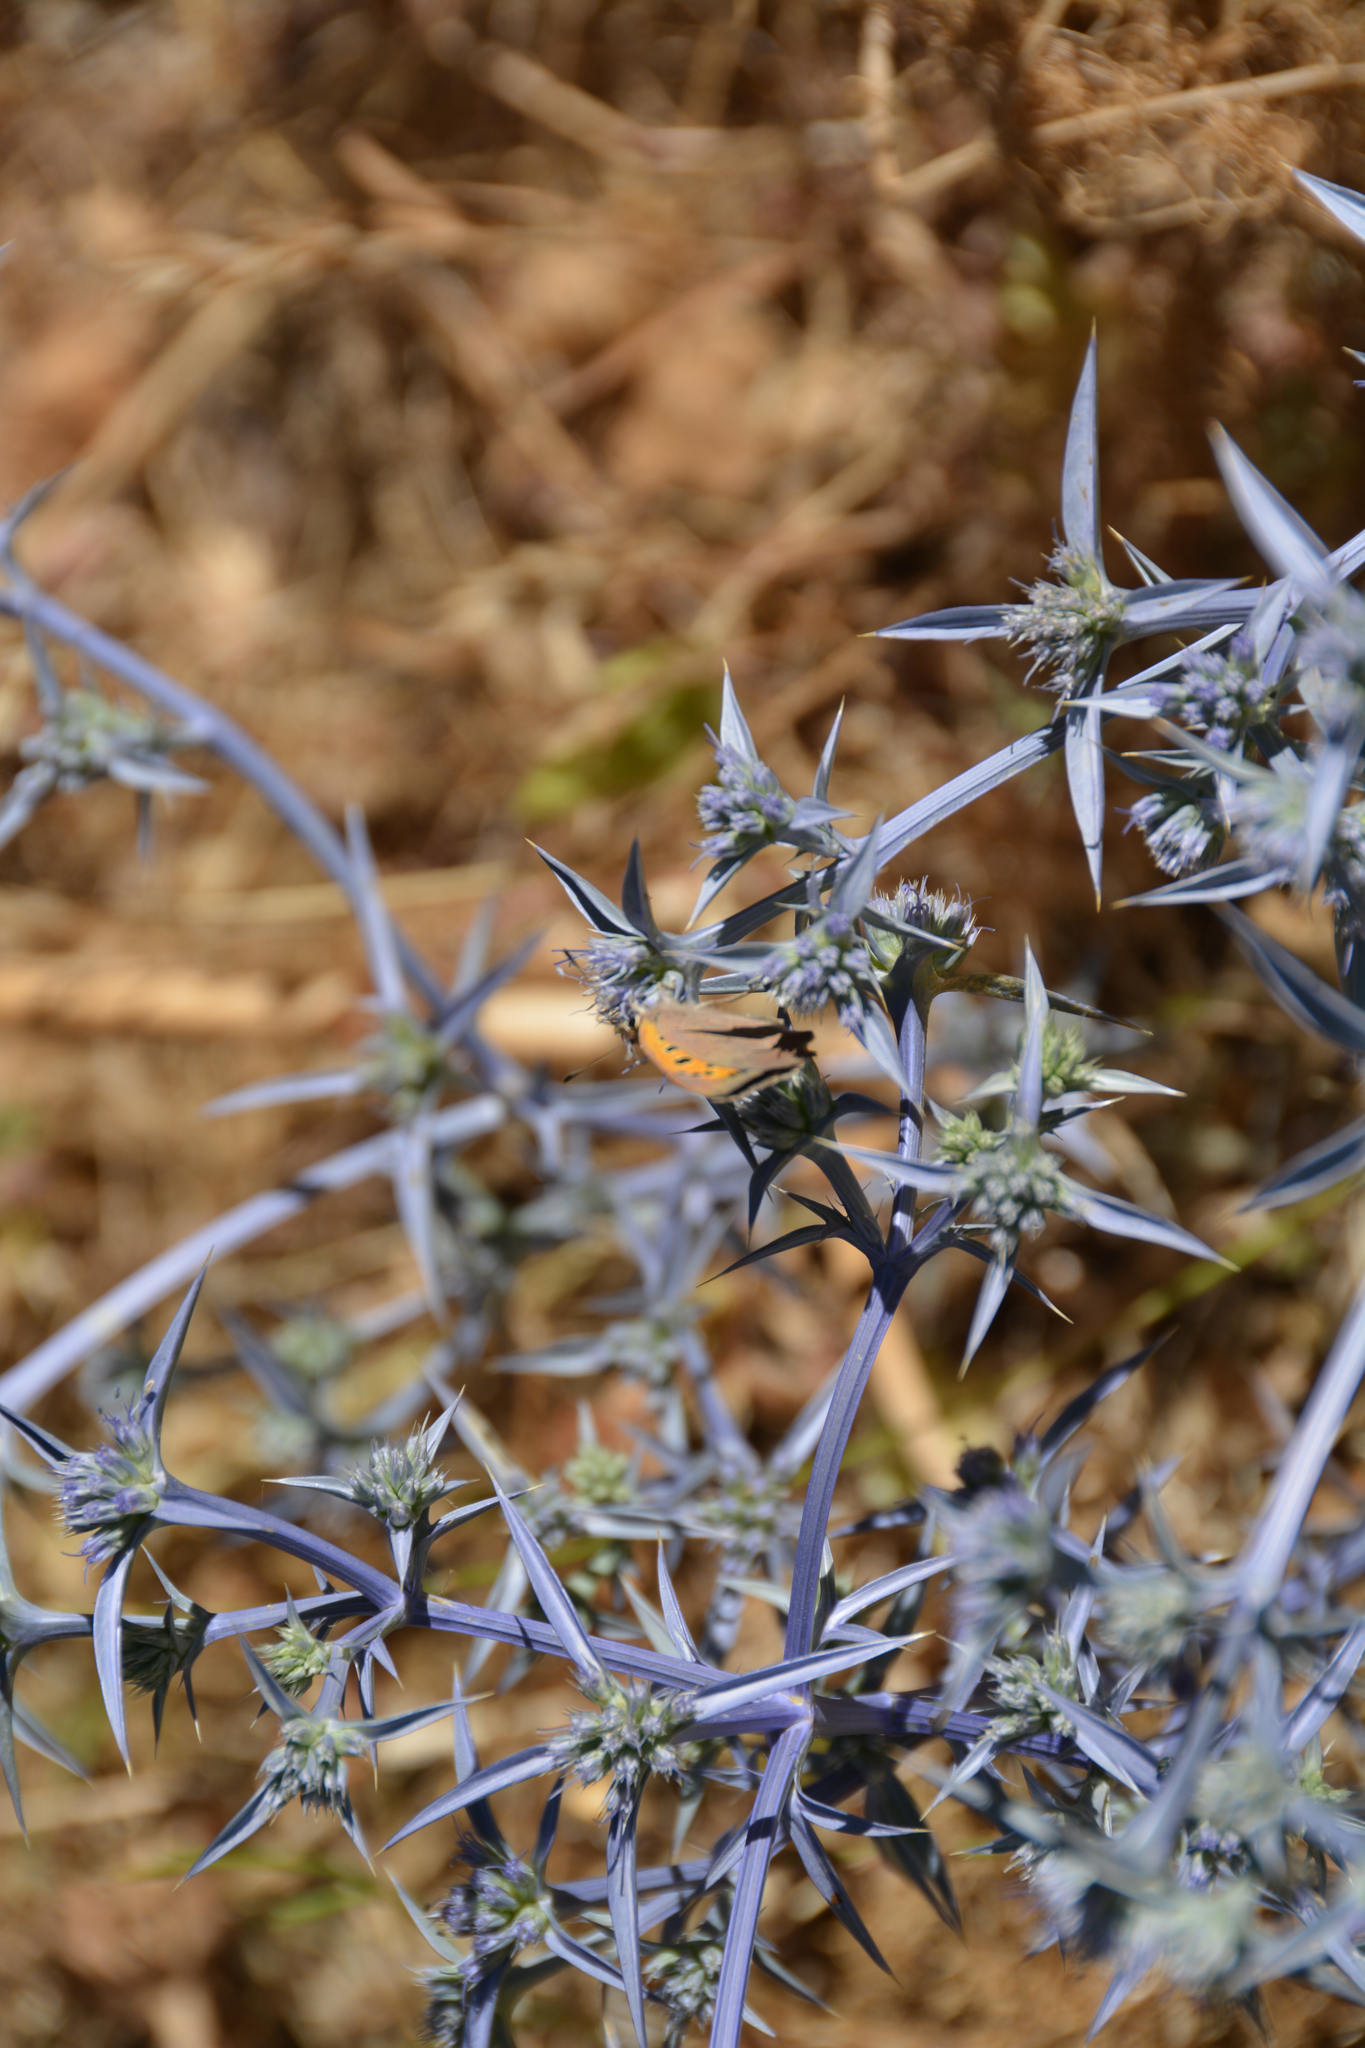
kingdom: Plantae
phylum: Tracheophyta
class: Magnoliopsida
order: Apiales
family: Apiaceae
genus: Eryngium
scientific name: Eryngium triquetrum
